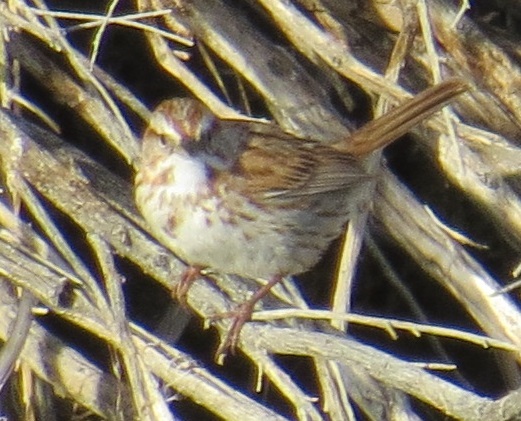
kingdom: Animalia
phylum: Chordata
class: Aves
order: Passeriformes
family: Passerellidae
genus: Melospiza
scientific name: Melospiza melodia
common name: Song sparrow
